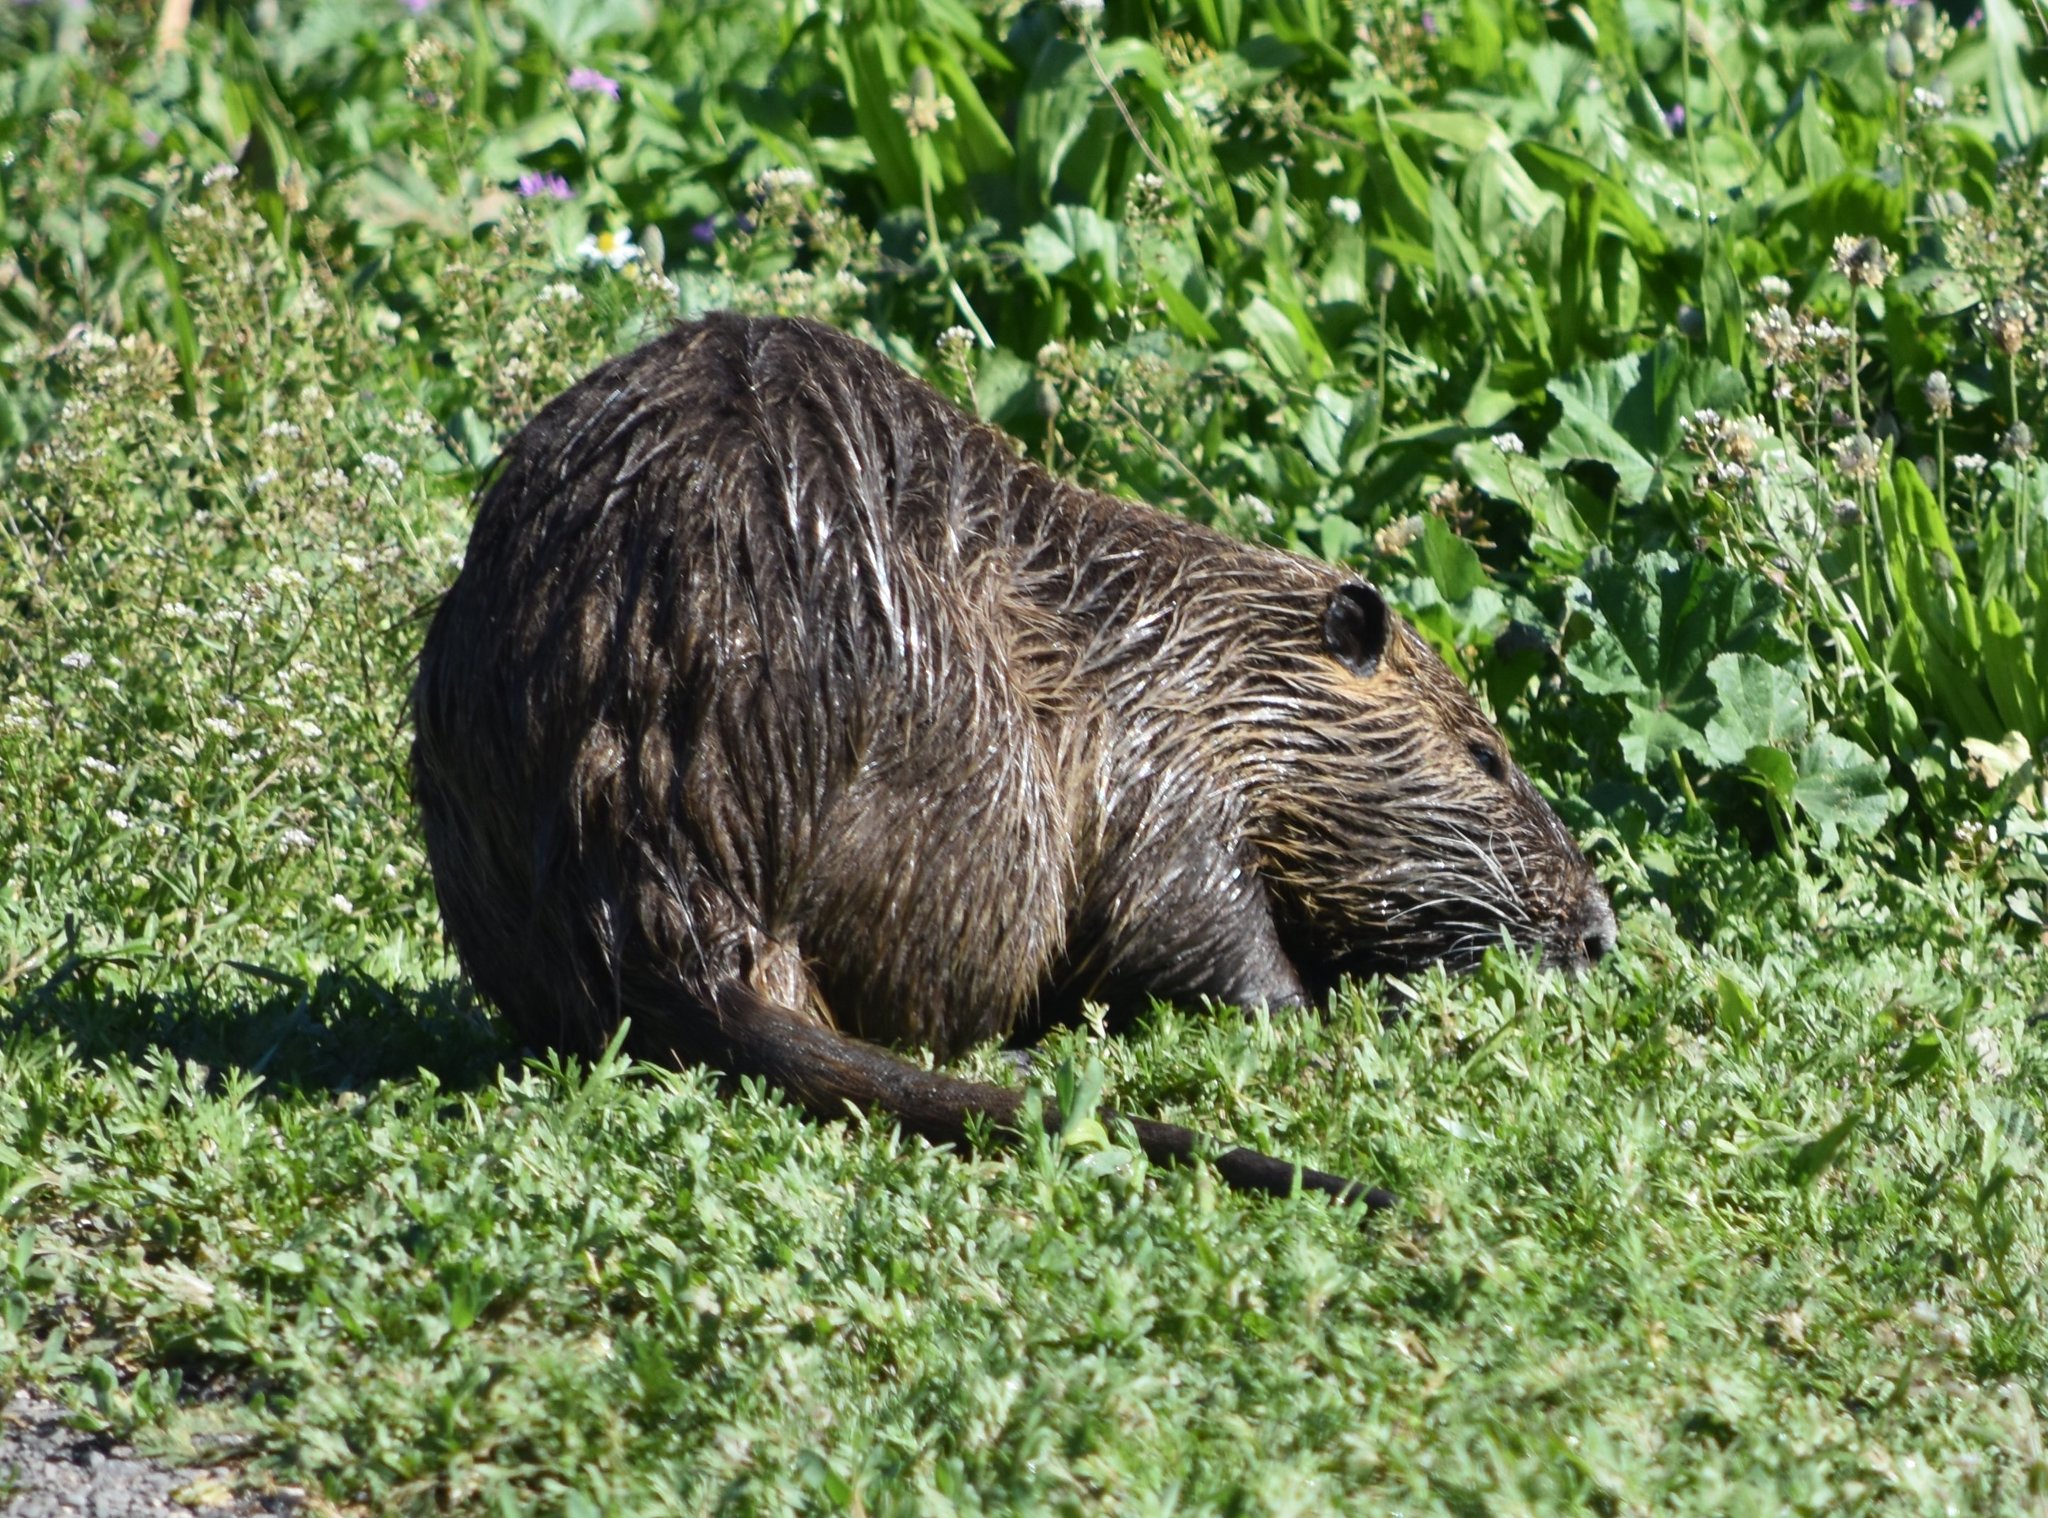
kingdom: Animalia
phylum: Chordata
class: Mammalia
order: Rodentia
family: Myocastoridae
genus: Myocastor
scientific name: Myocastor coypus
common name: Coypu
